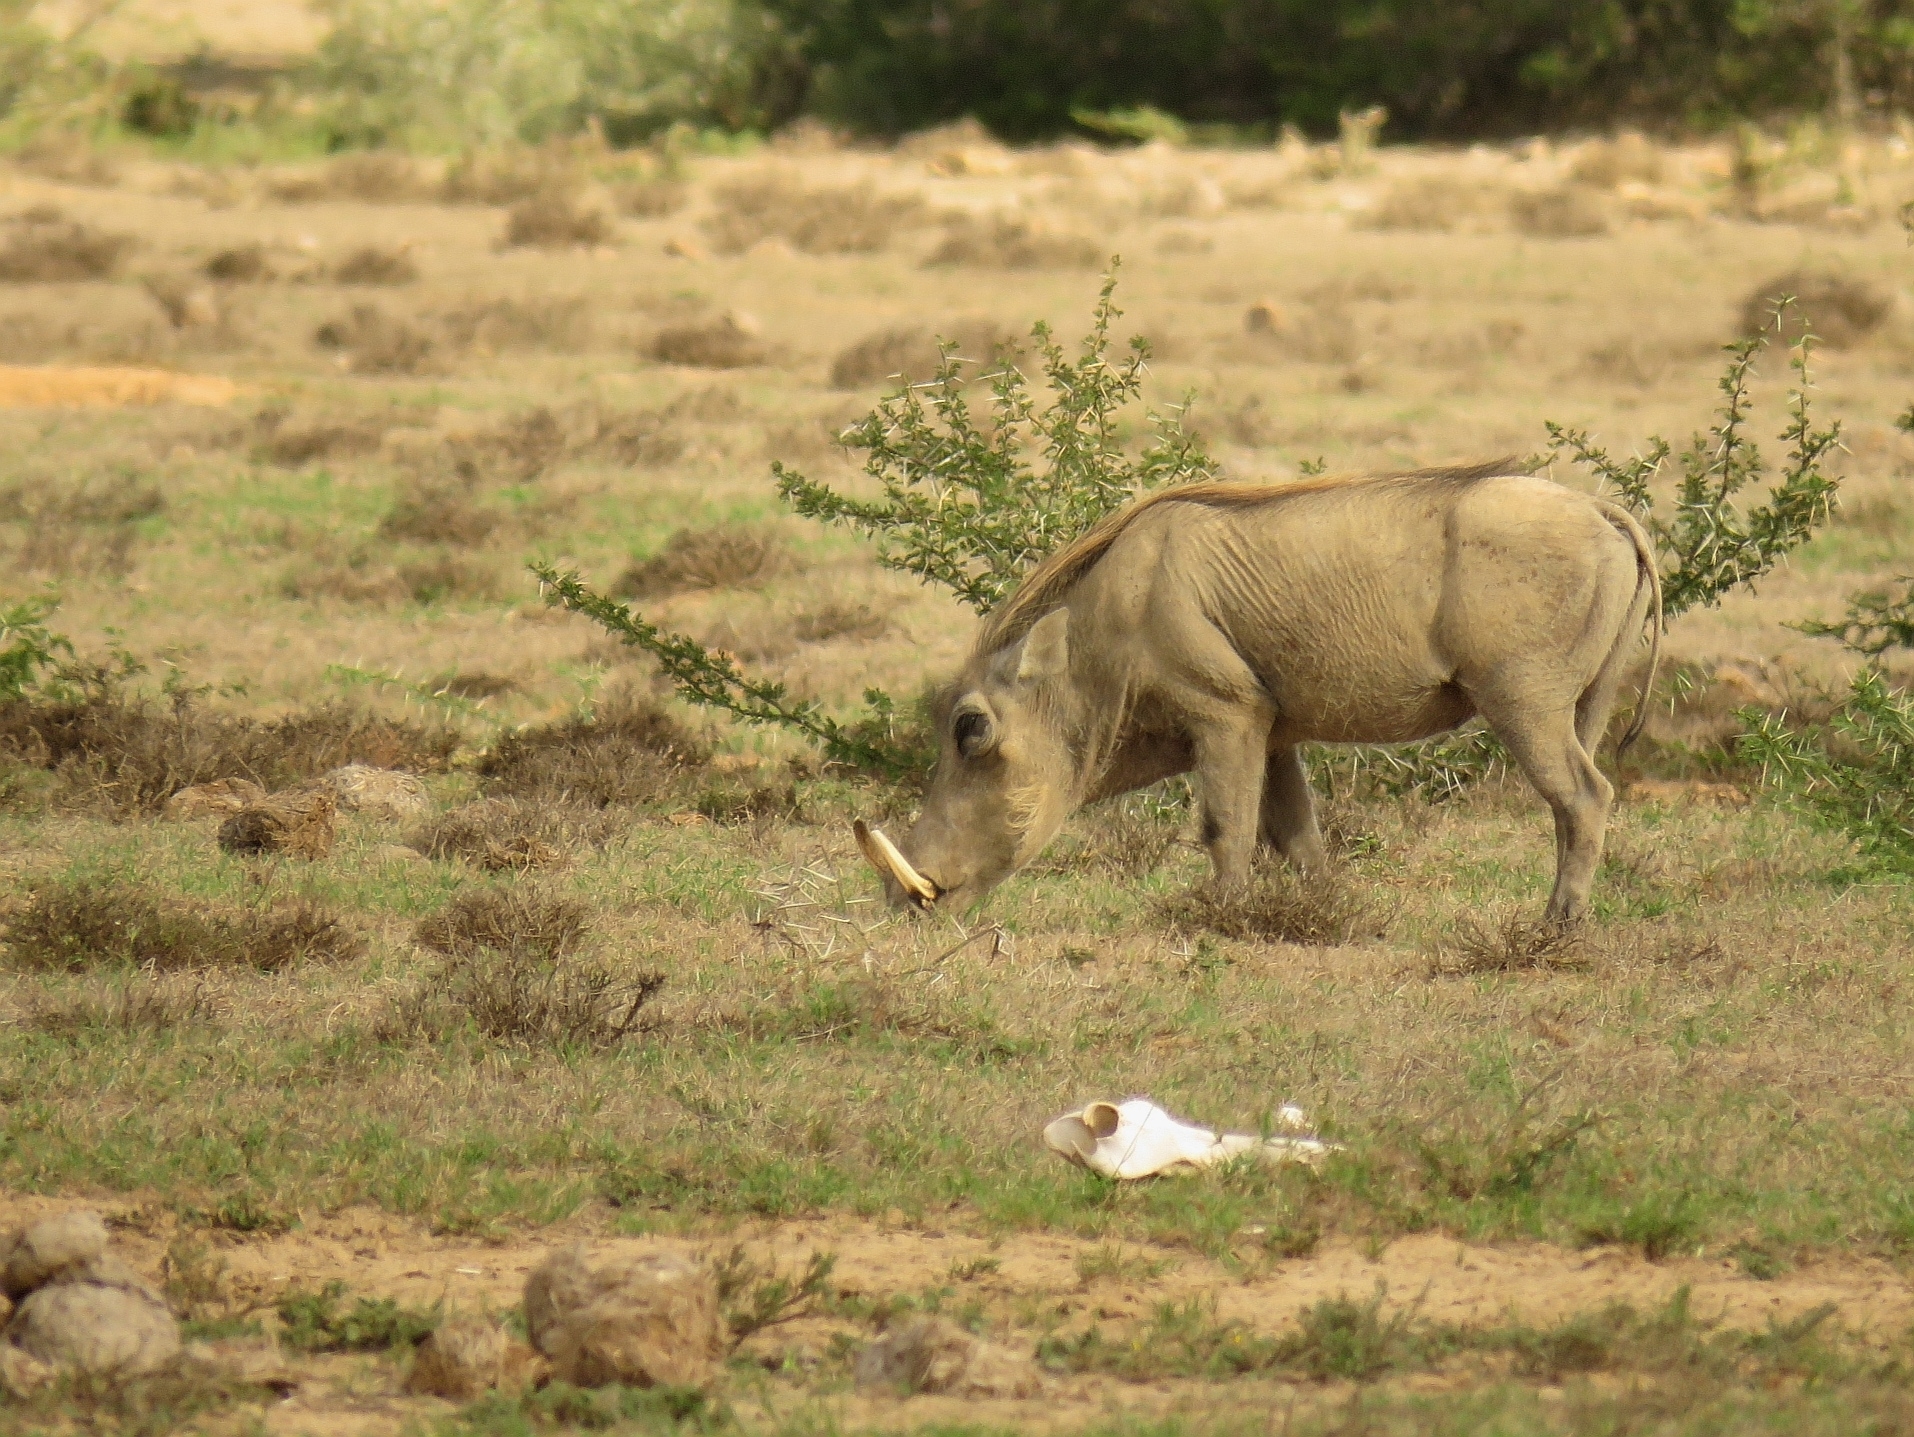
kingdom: Animalia
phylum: Chordata
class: Mammalia
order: Artiodactyla
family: Suidae
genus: Phacochoerus
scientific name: Phacochoerus africanus
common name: Common warthog
